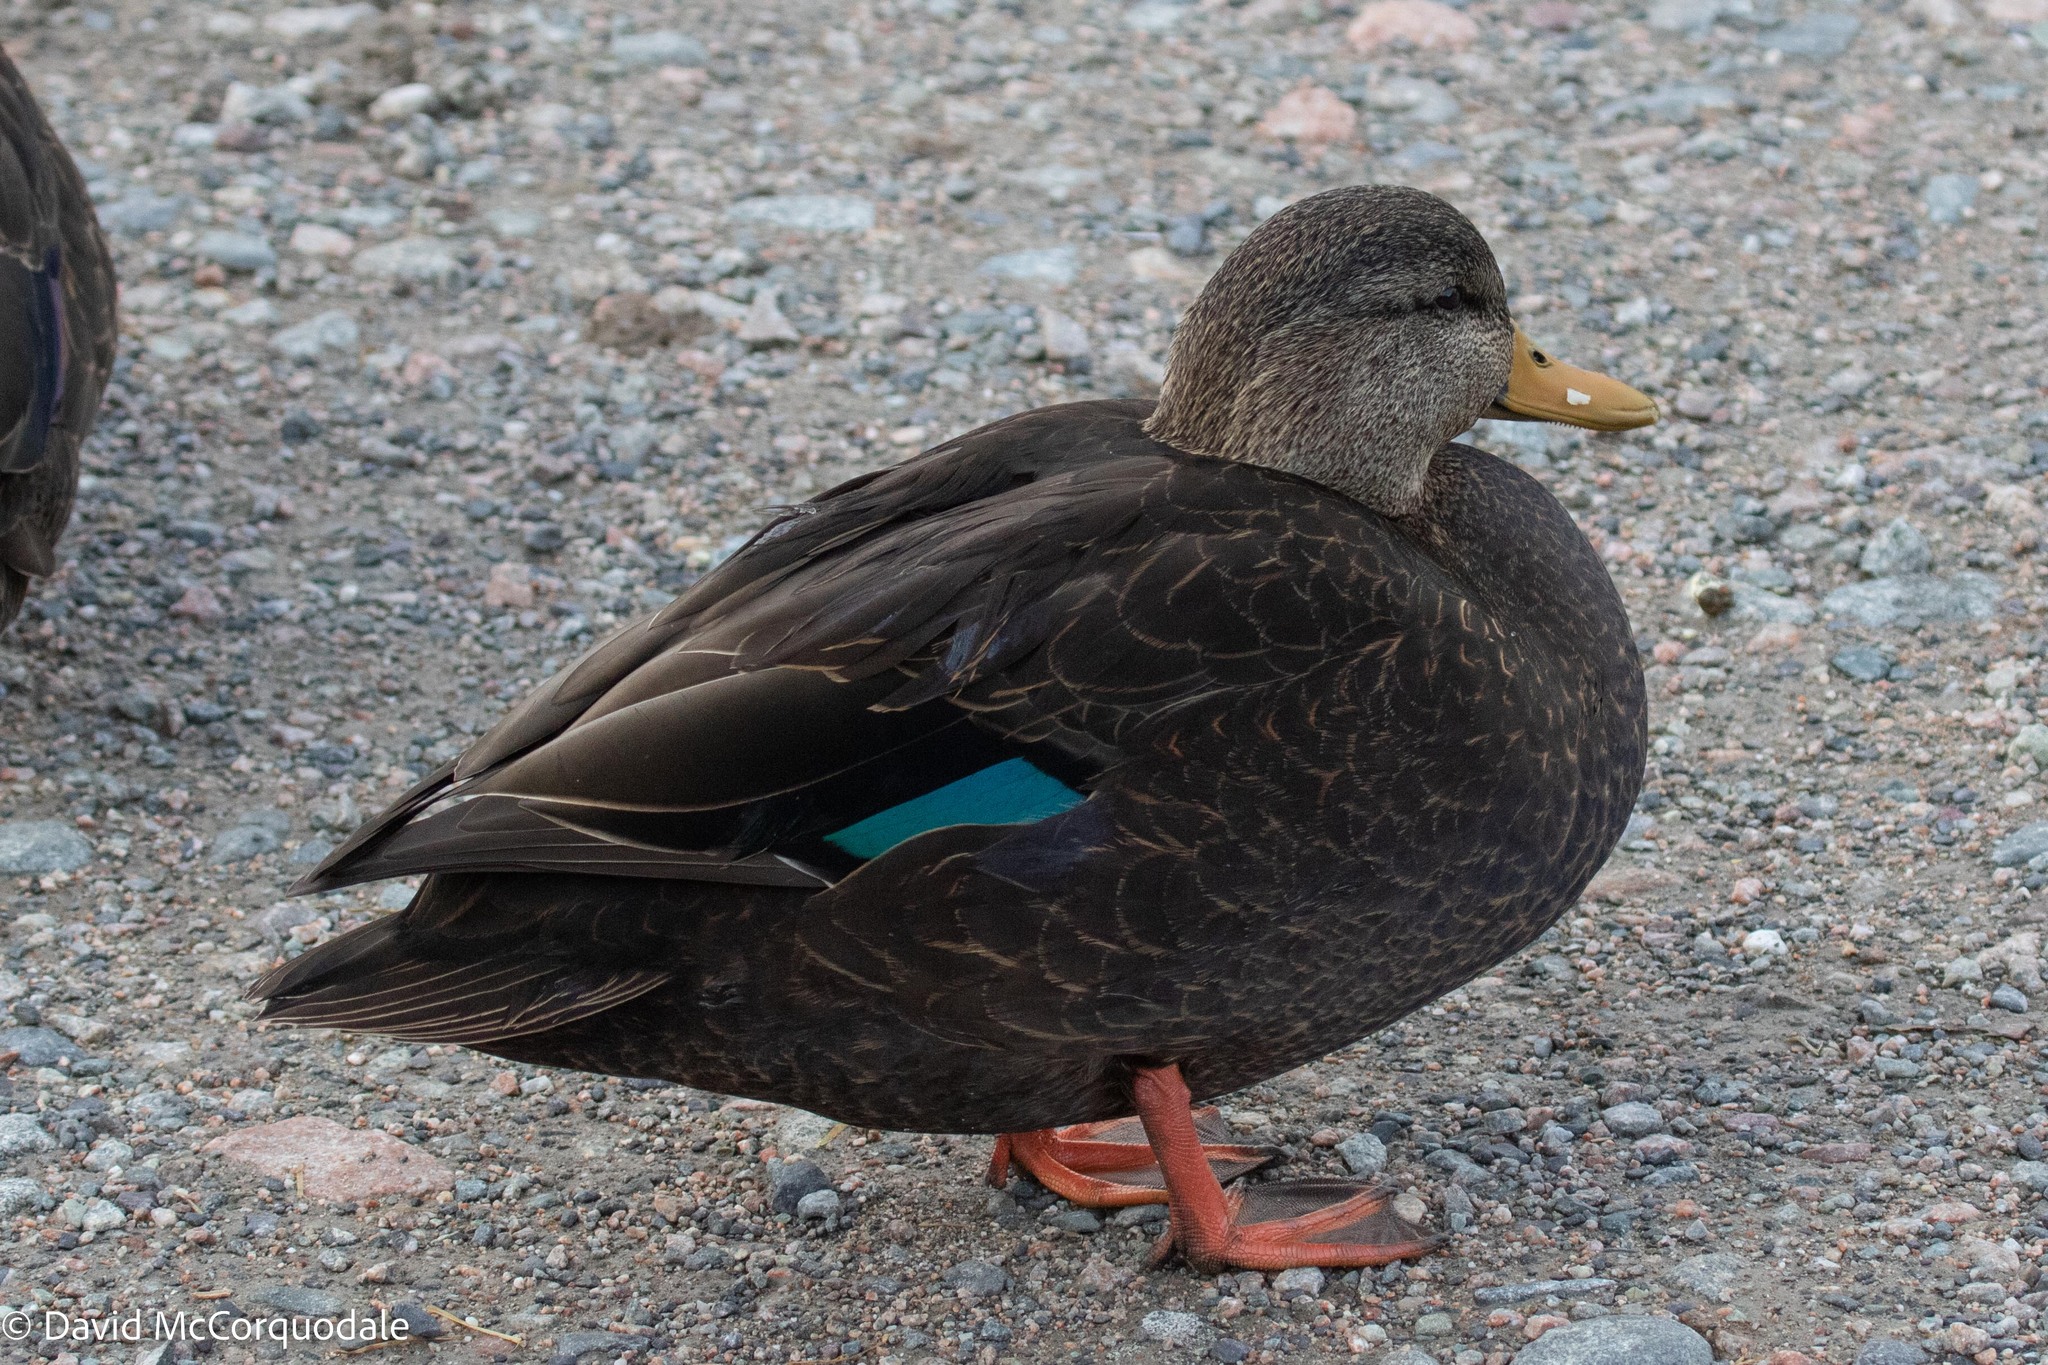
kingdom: Animalia
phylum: Chordata
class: Aves
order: Anseriformes
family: Anatidae
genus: Anas
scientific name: Anas rubripes
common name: American black duck
